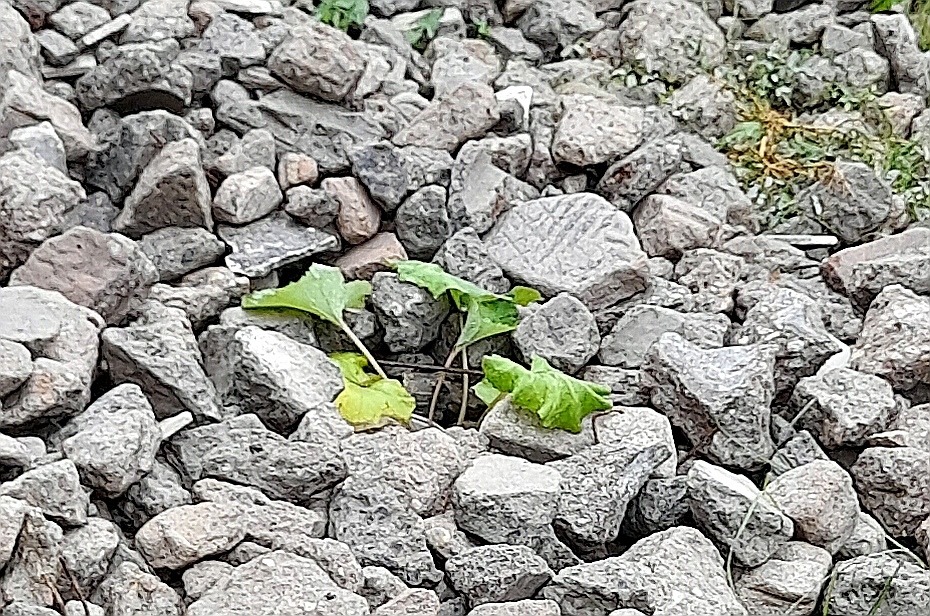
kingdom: Plantae
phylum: Tracheophyta
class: Magnoliopsida
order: Asterales
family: Asteraceae
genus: Tussilago
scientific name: Tussilago farfara
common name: Coltsfoot
